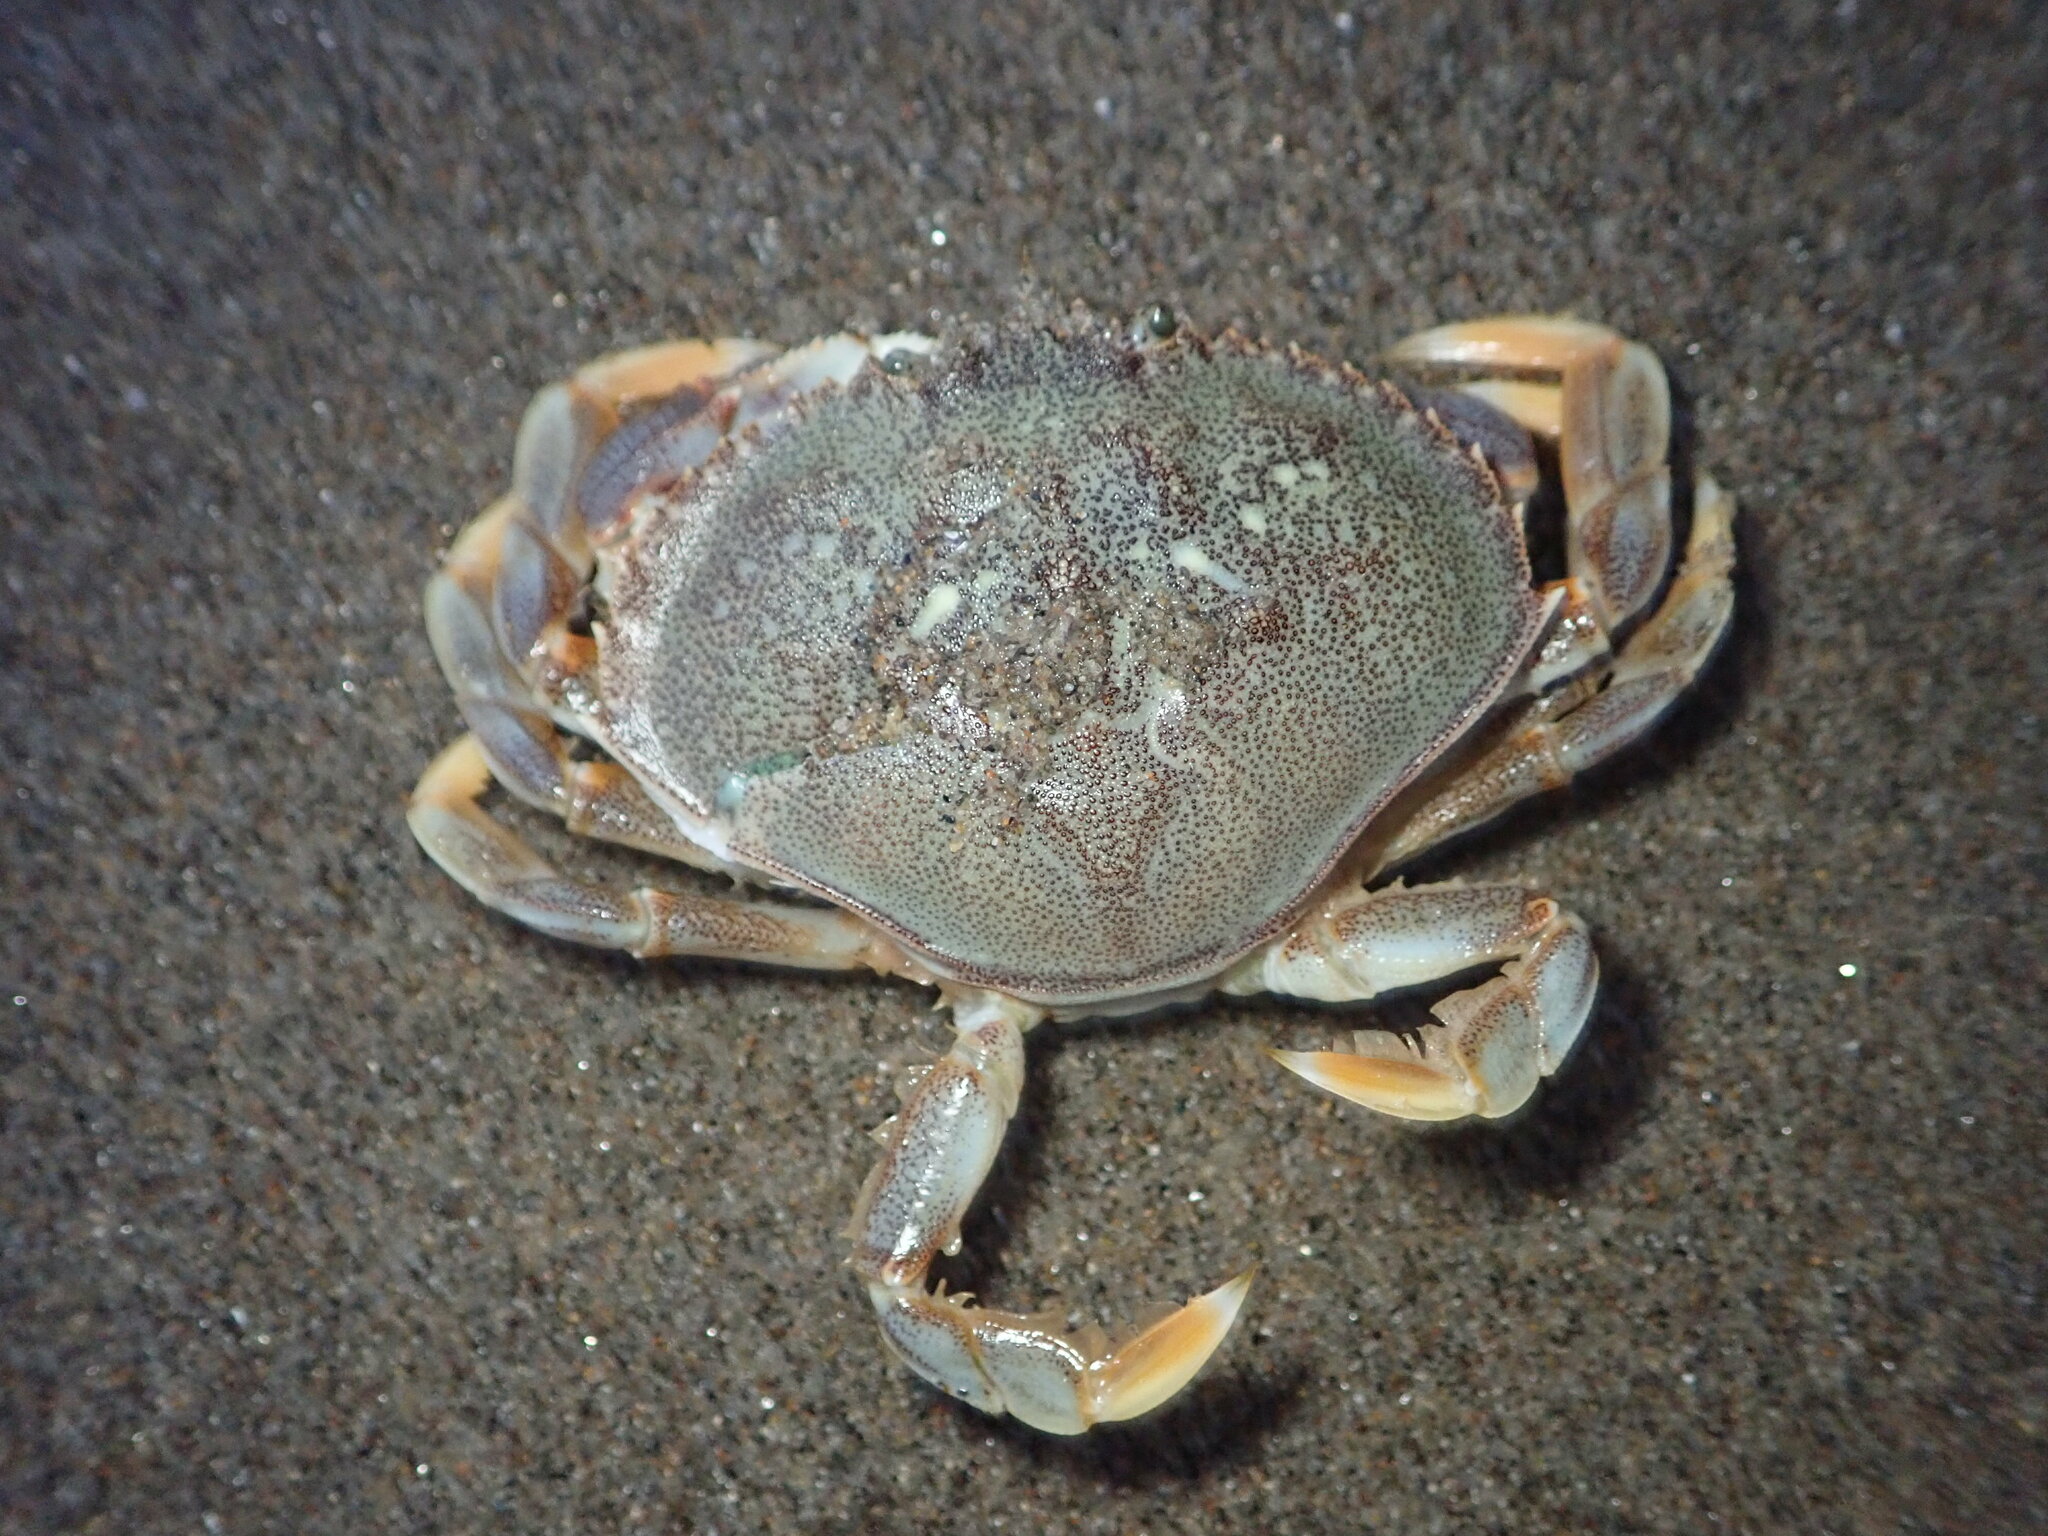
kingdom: Animalia
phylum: Arthropoda
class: Malacostraca
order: Decapoda
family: Cancridae
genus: Metacarcinus
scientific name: Metacarcinus magister
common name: Californian crab
